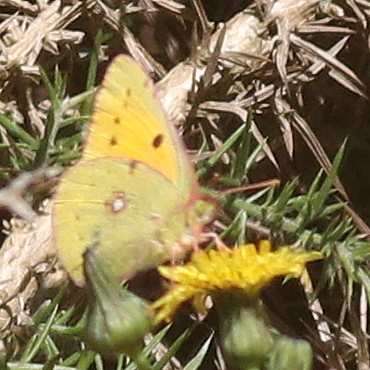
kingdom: Animalia
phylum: Arthropoda
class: Insecta
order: Lepidoptera
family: Pieridae
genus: Colias
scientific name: Colias croceus
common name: Clouded yellow
